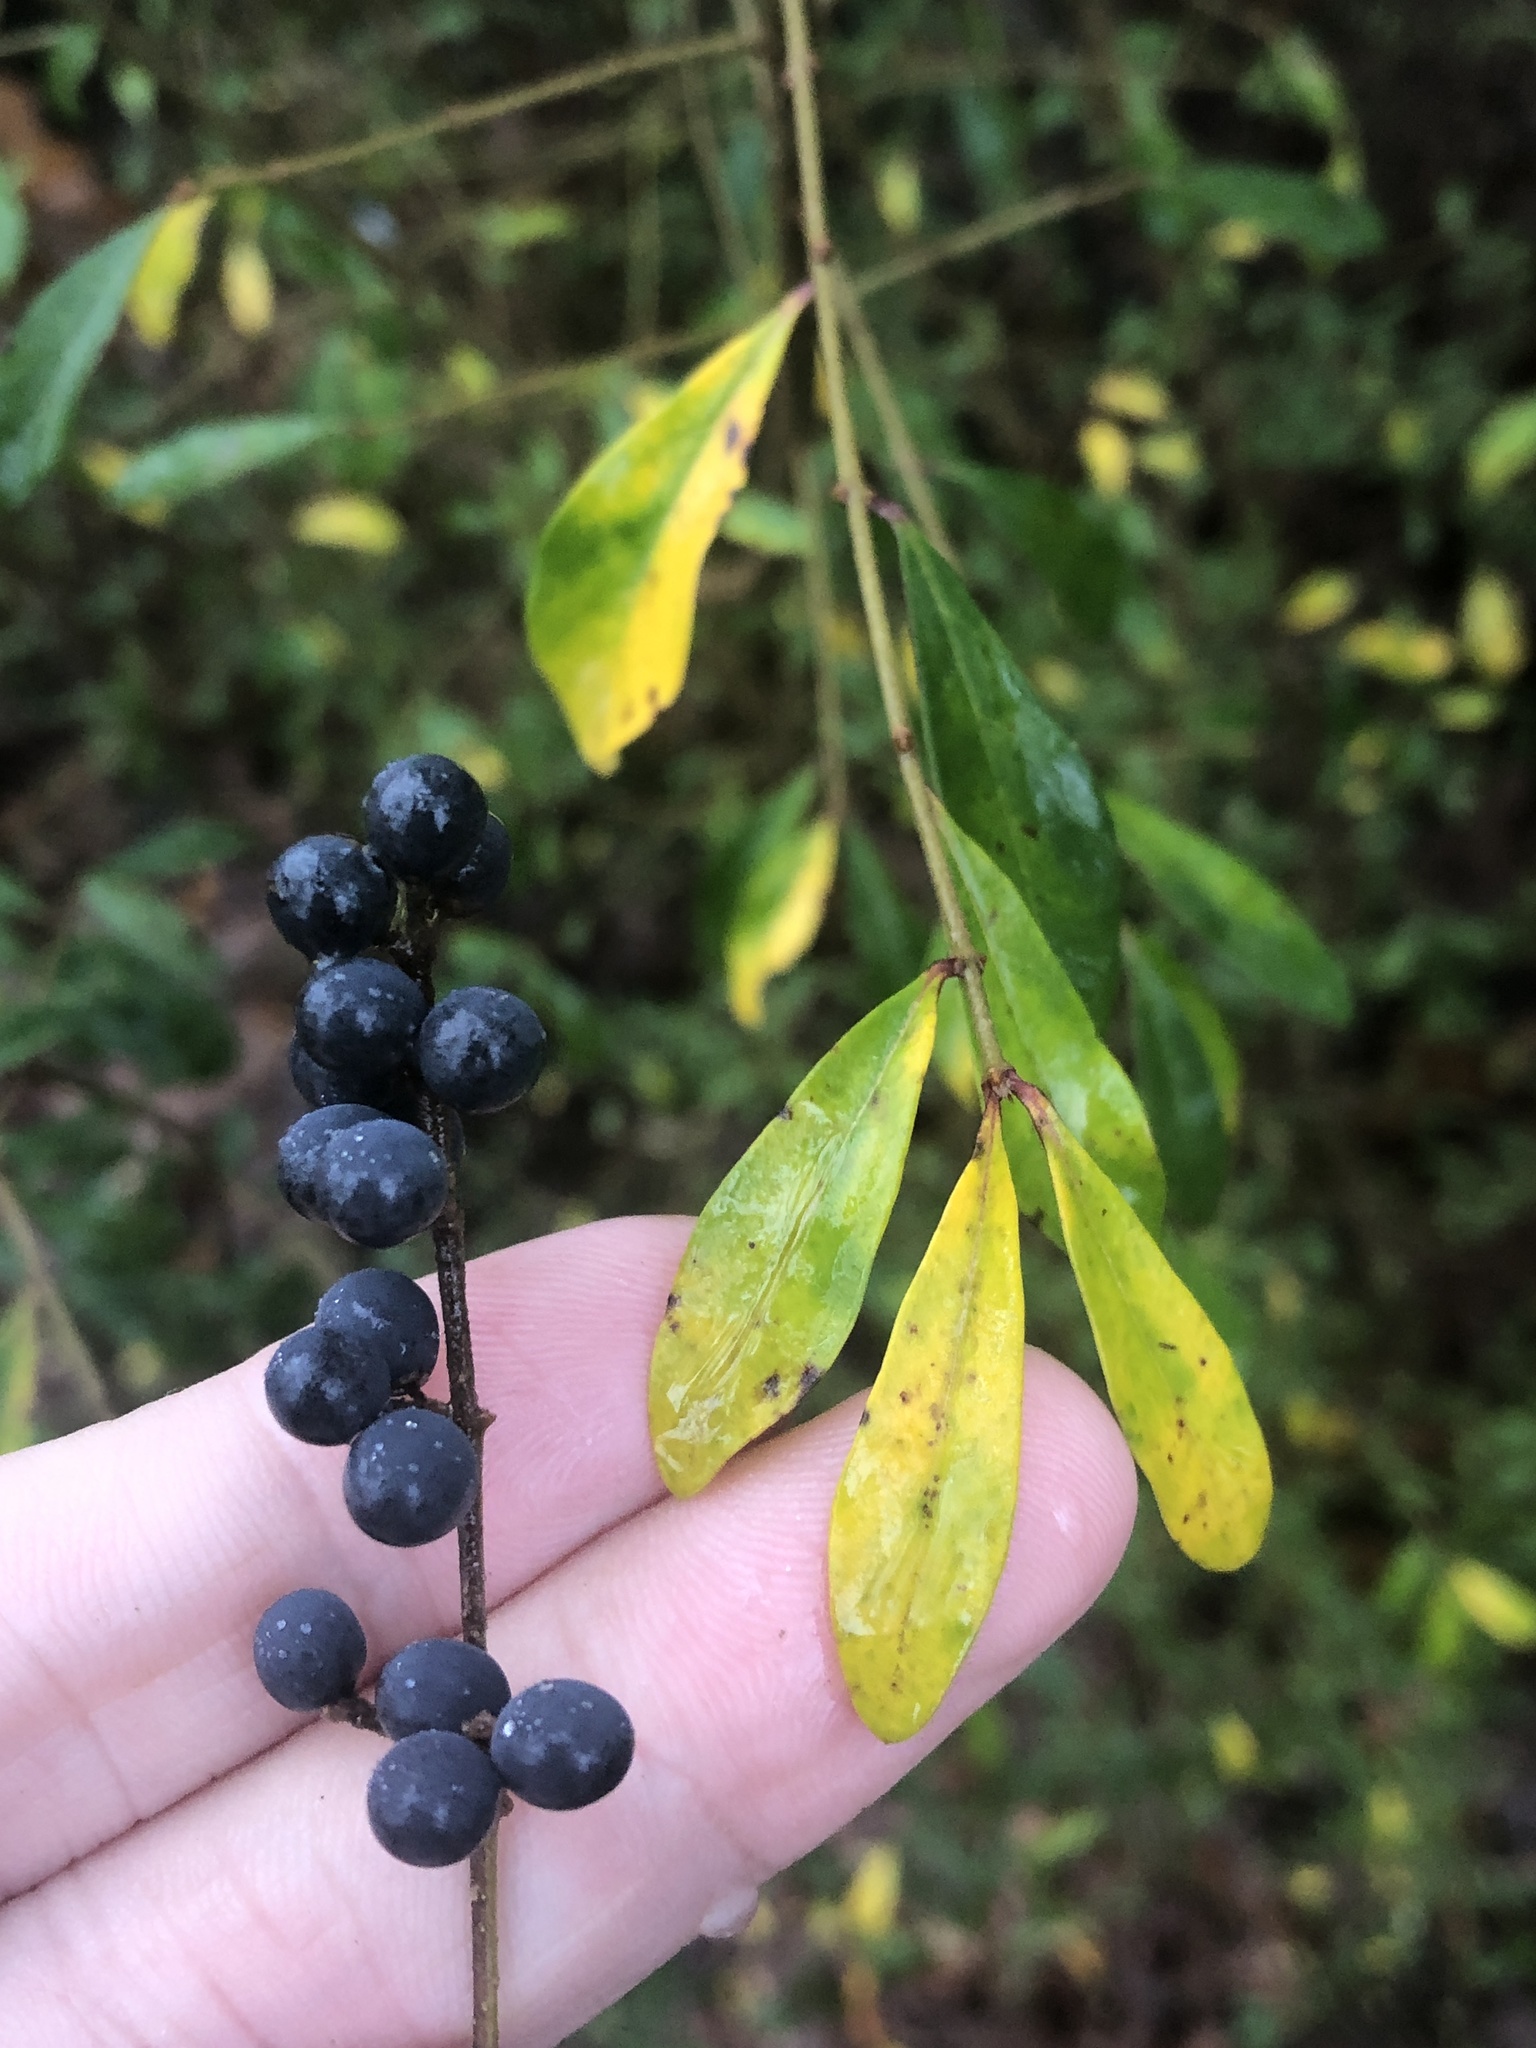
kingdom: Plantae
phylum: Tracheophyta
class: Magnoliopsida
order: Lamiales
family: Oleaceae
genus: Ligustrum
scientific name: Ligustrum quihoui
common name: Waxyleaf privet
